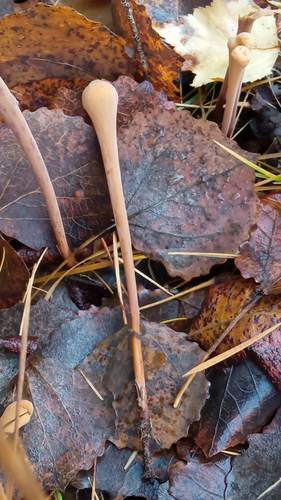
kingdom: Fungi
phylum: Basidiomycota
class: Agaricomycetes
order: Agaricales
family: Typhulaceae
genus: Typhula
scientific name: Typhula fistulosa
